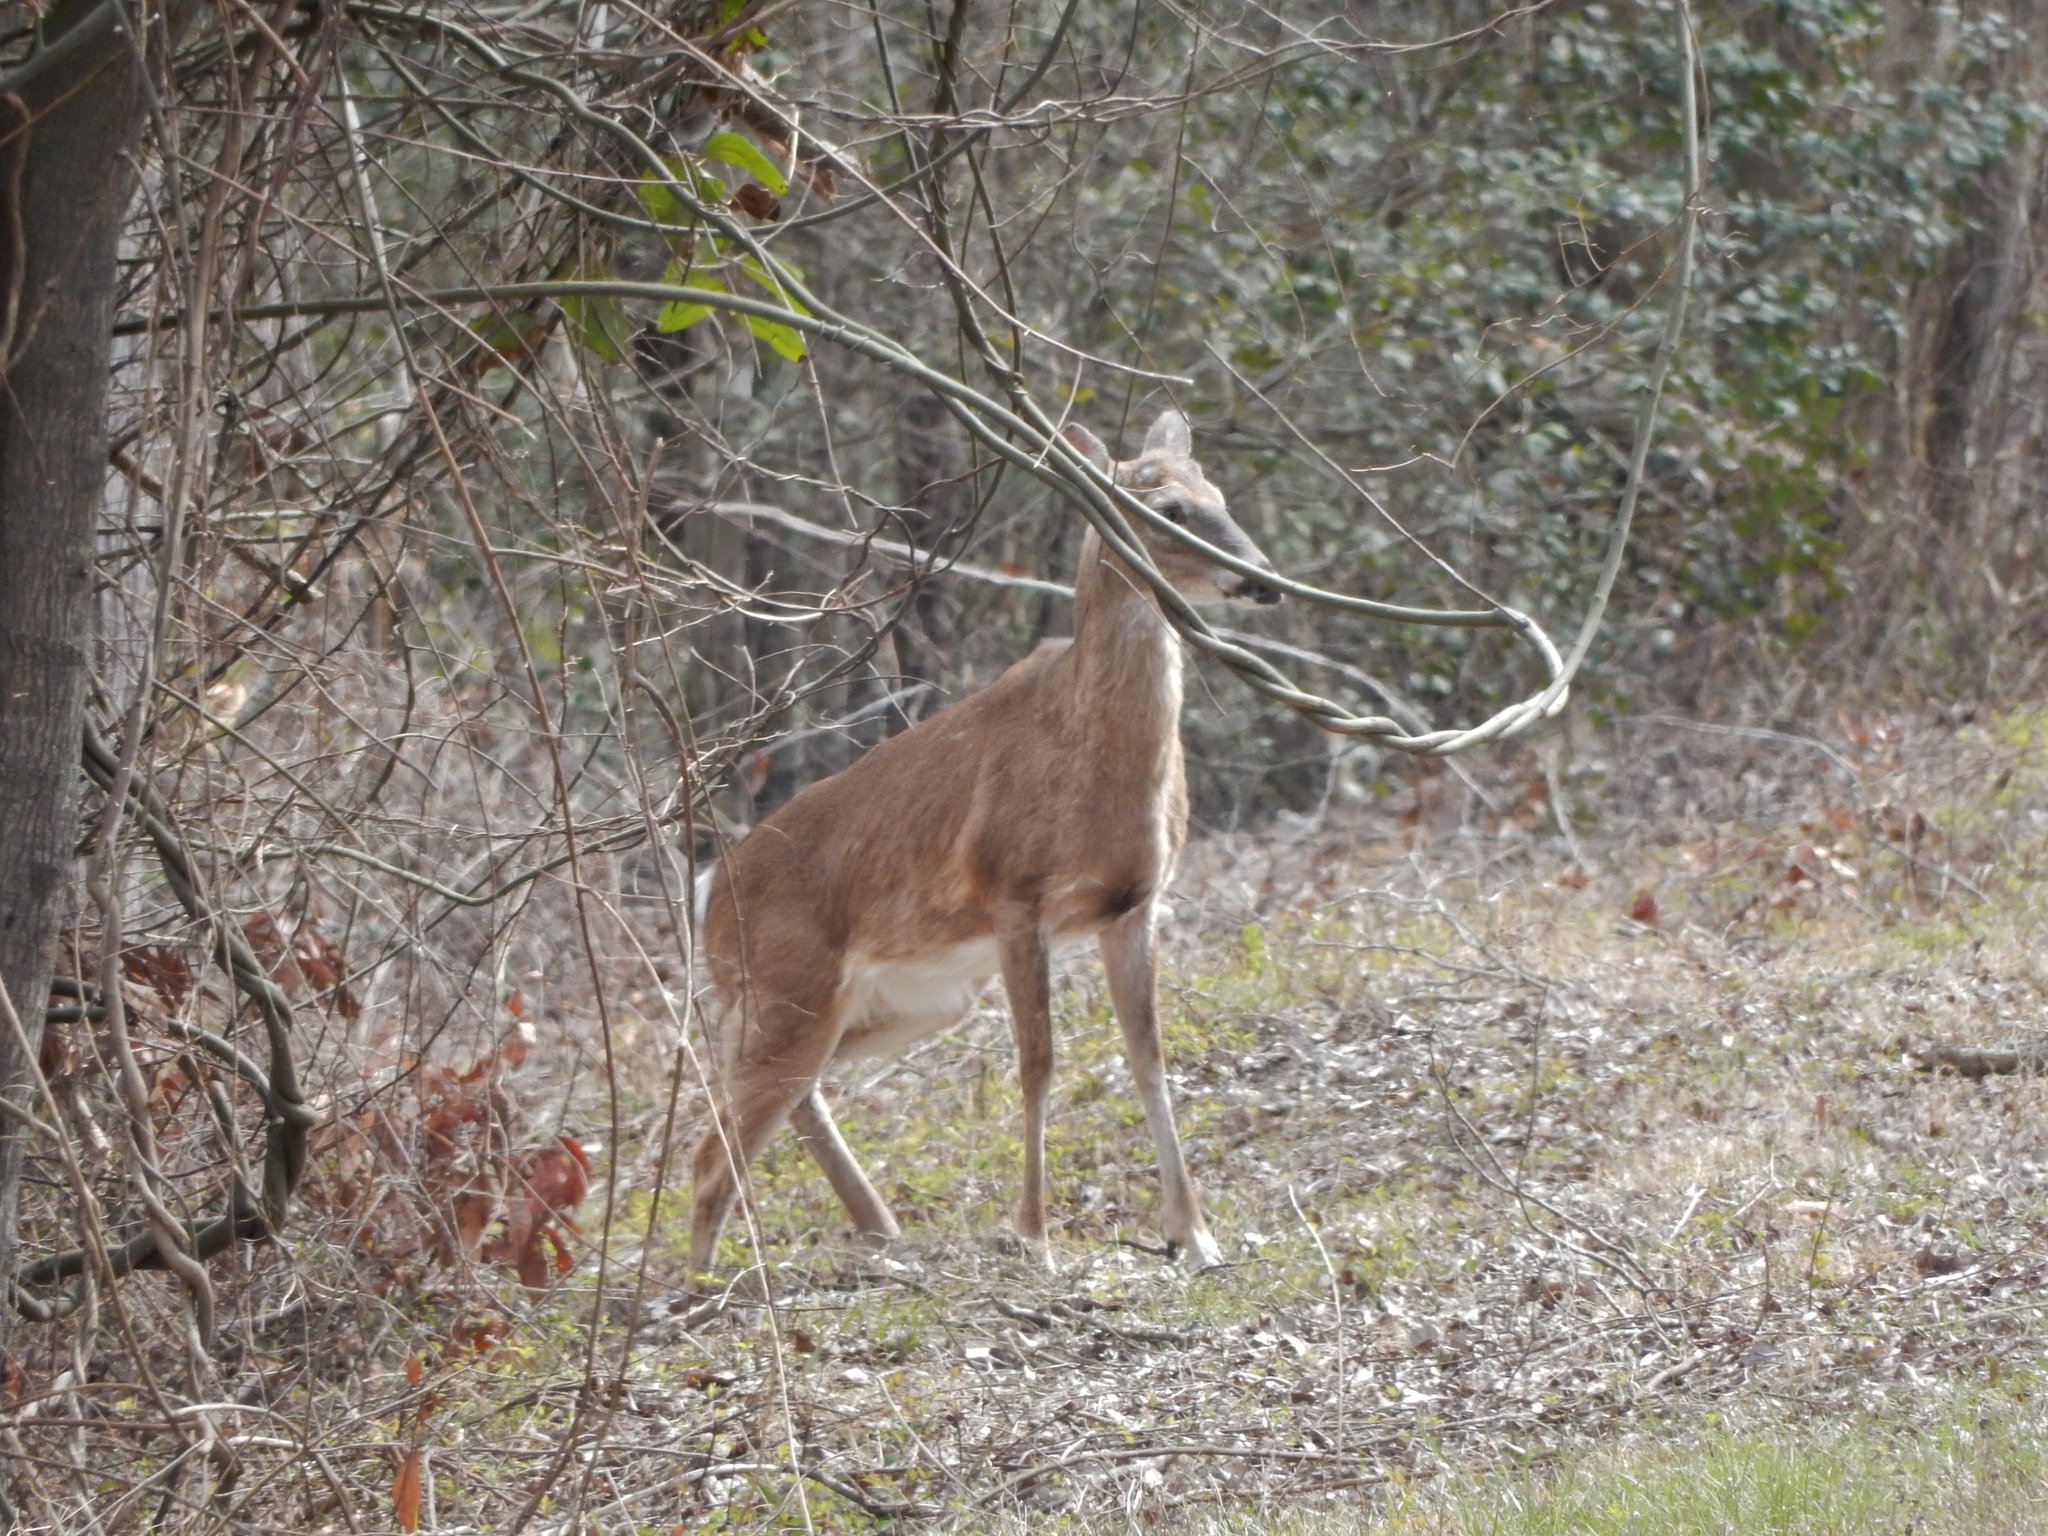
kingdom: Animalia
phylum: Chordata
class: Mammalia
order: Artiodactyla
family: Cervidae
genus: Odocoileus
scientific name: Odocoileus virginianus
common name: White-tailed deer
